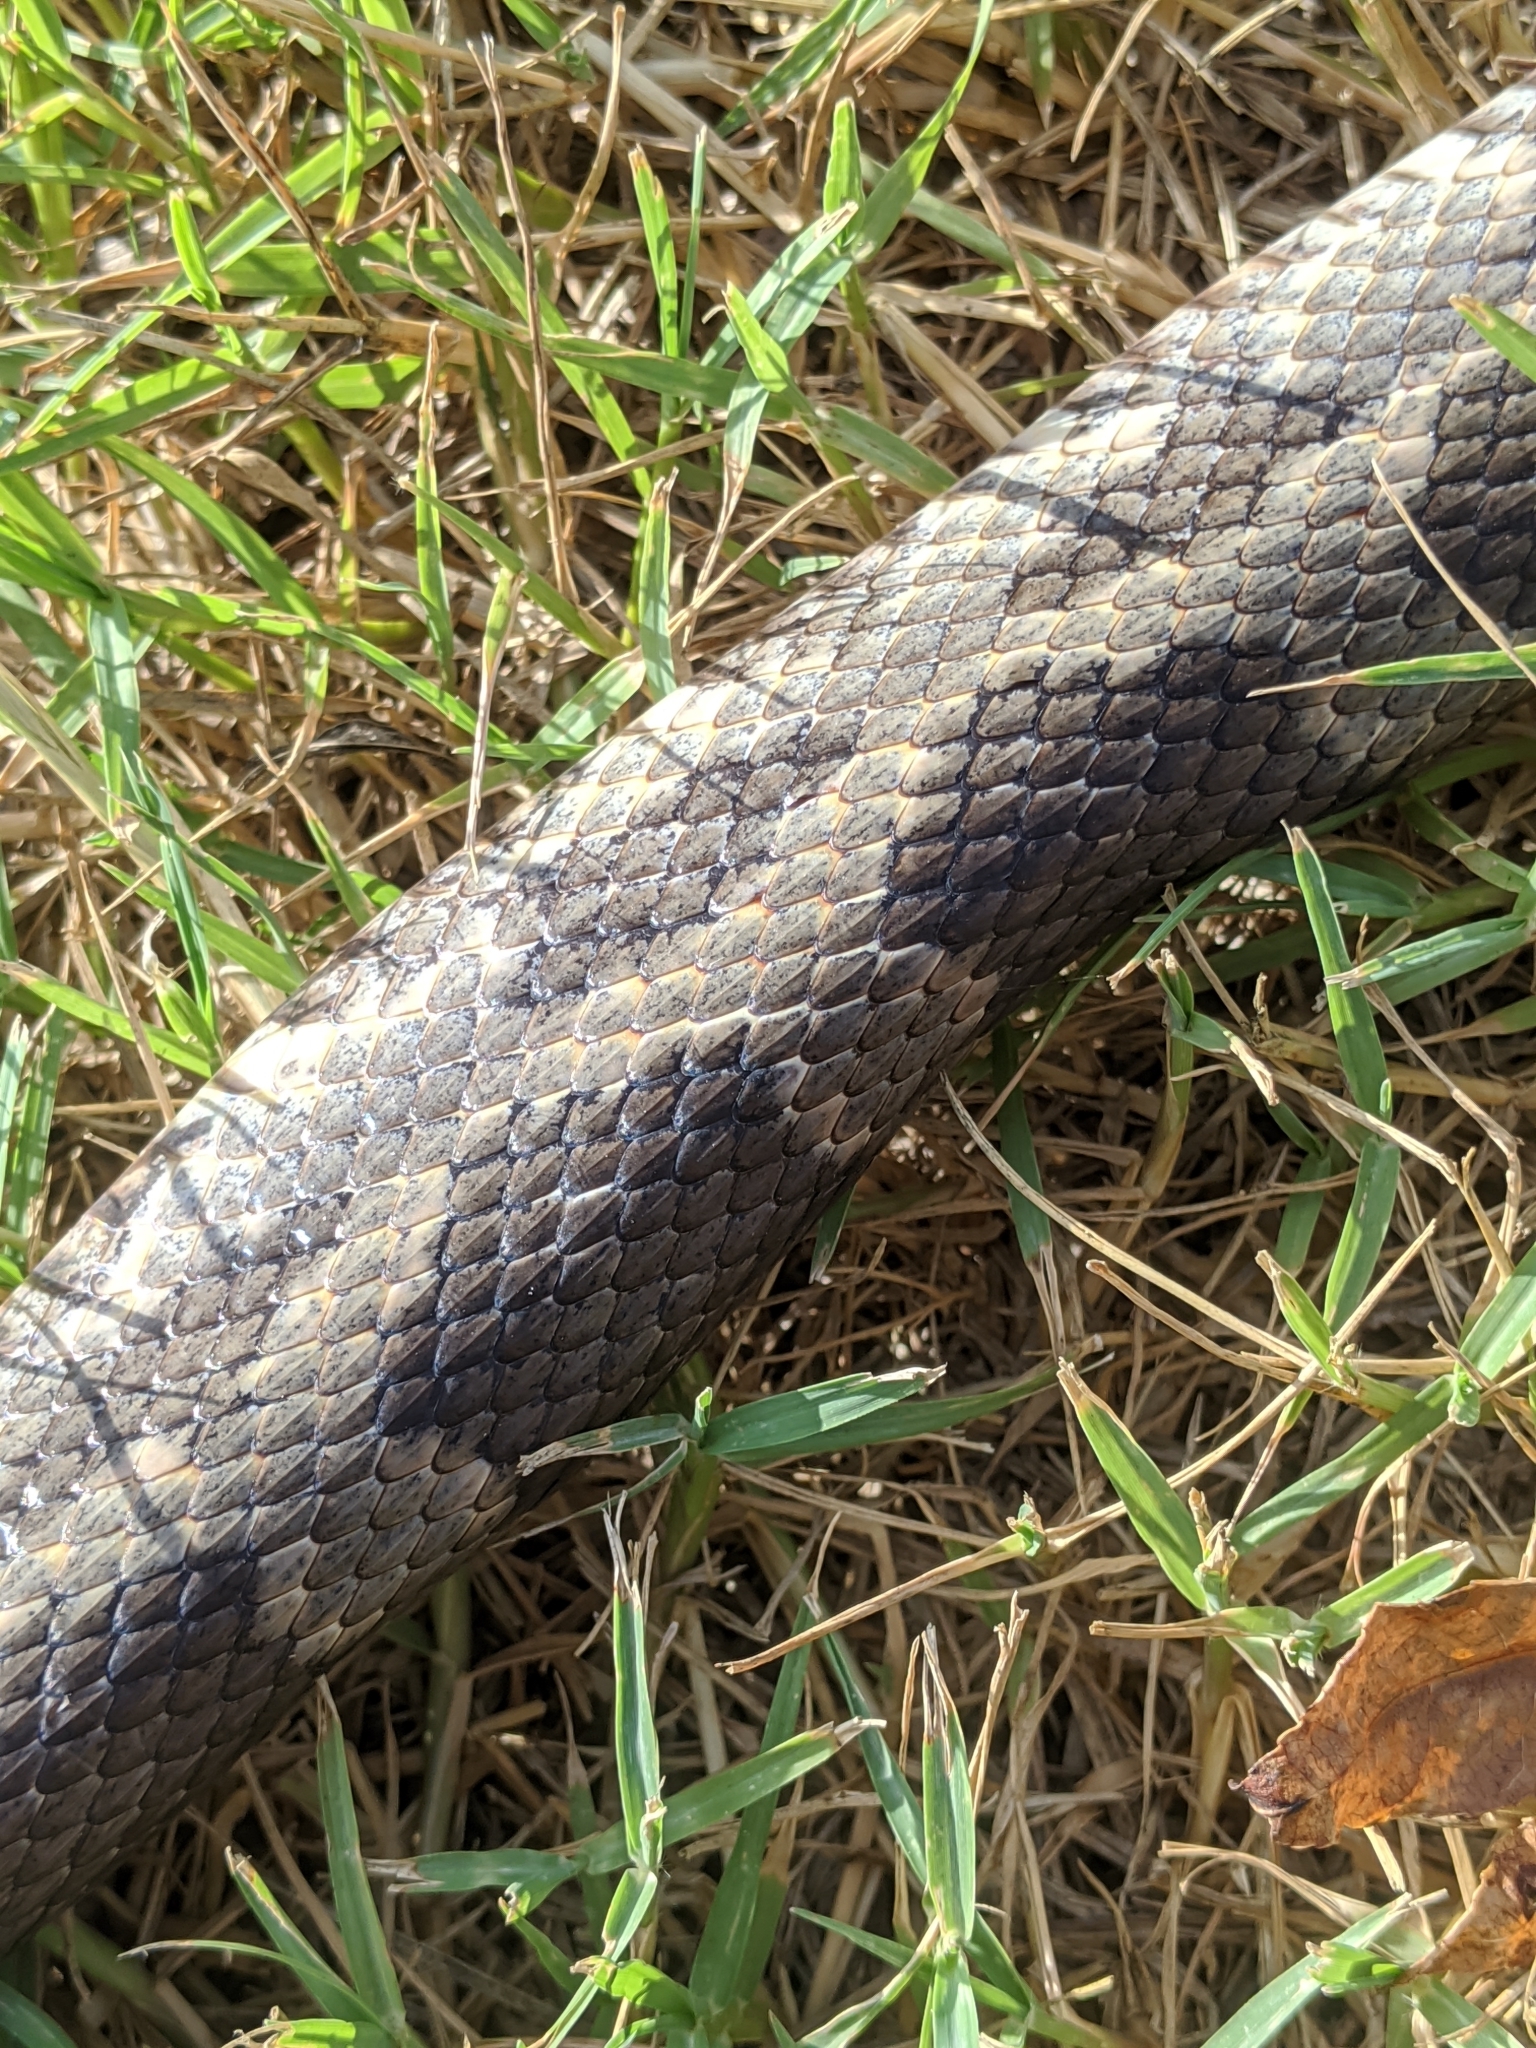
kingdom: Animalia
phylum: Chordata
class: Squamata
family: Colubridae
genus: Pantherophis
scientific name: Pantherophis obsoletus
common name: Black rat snake
